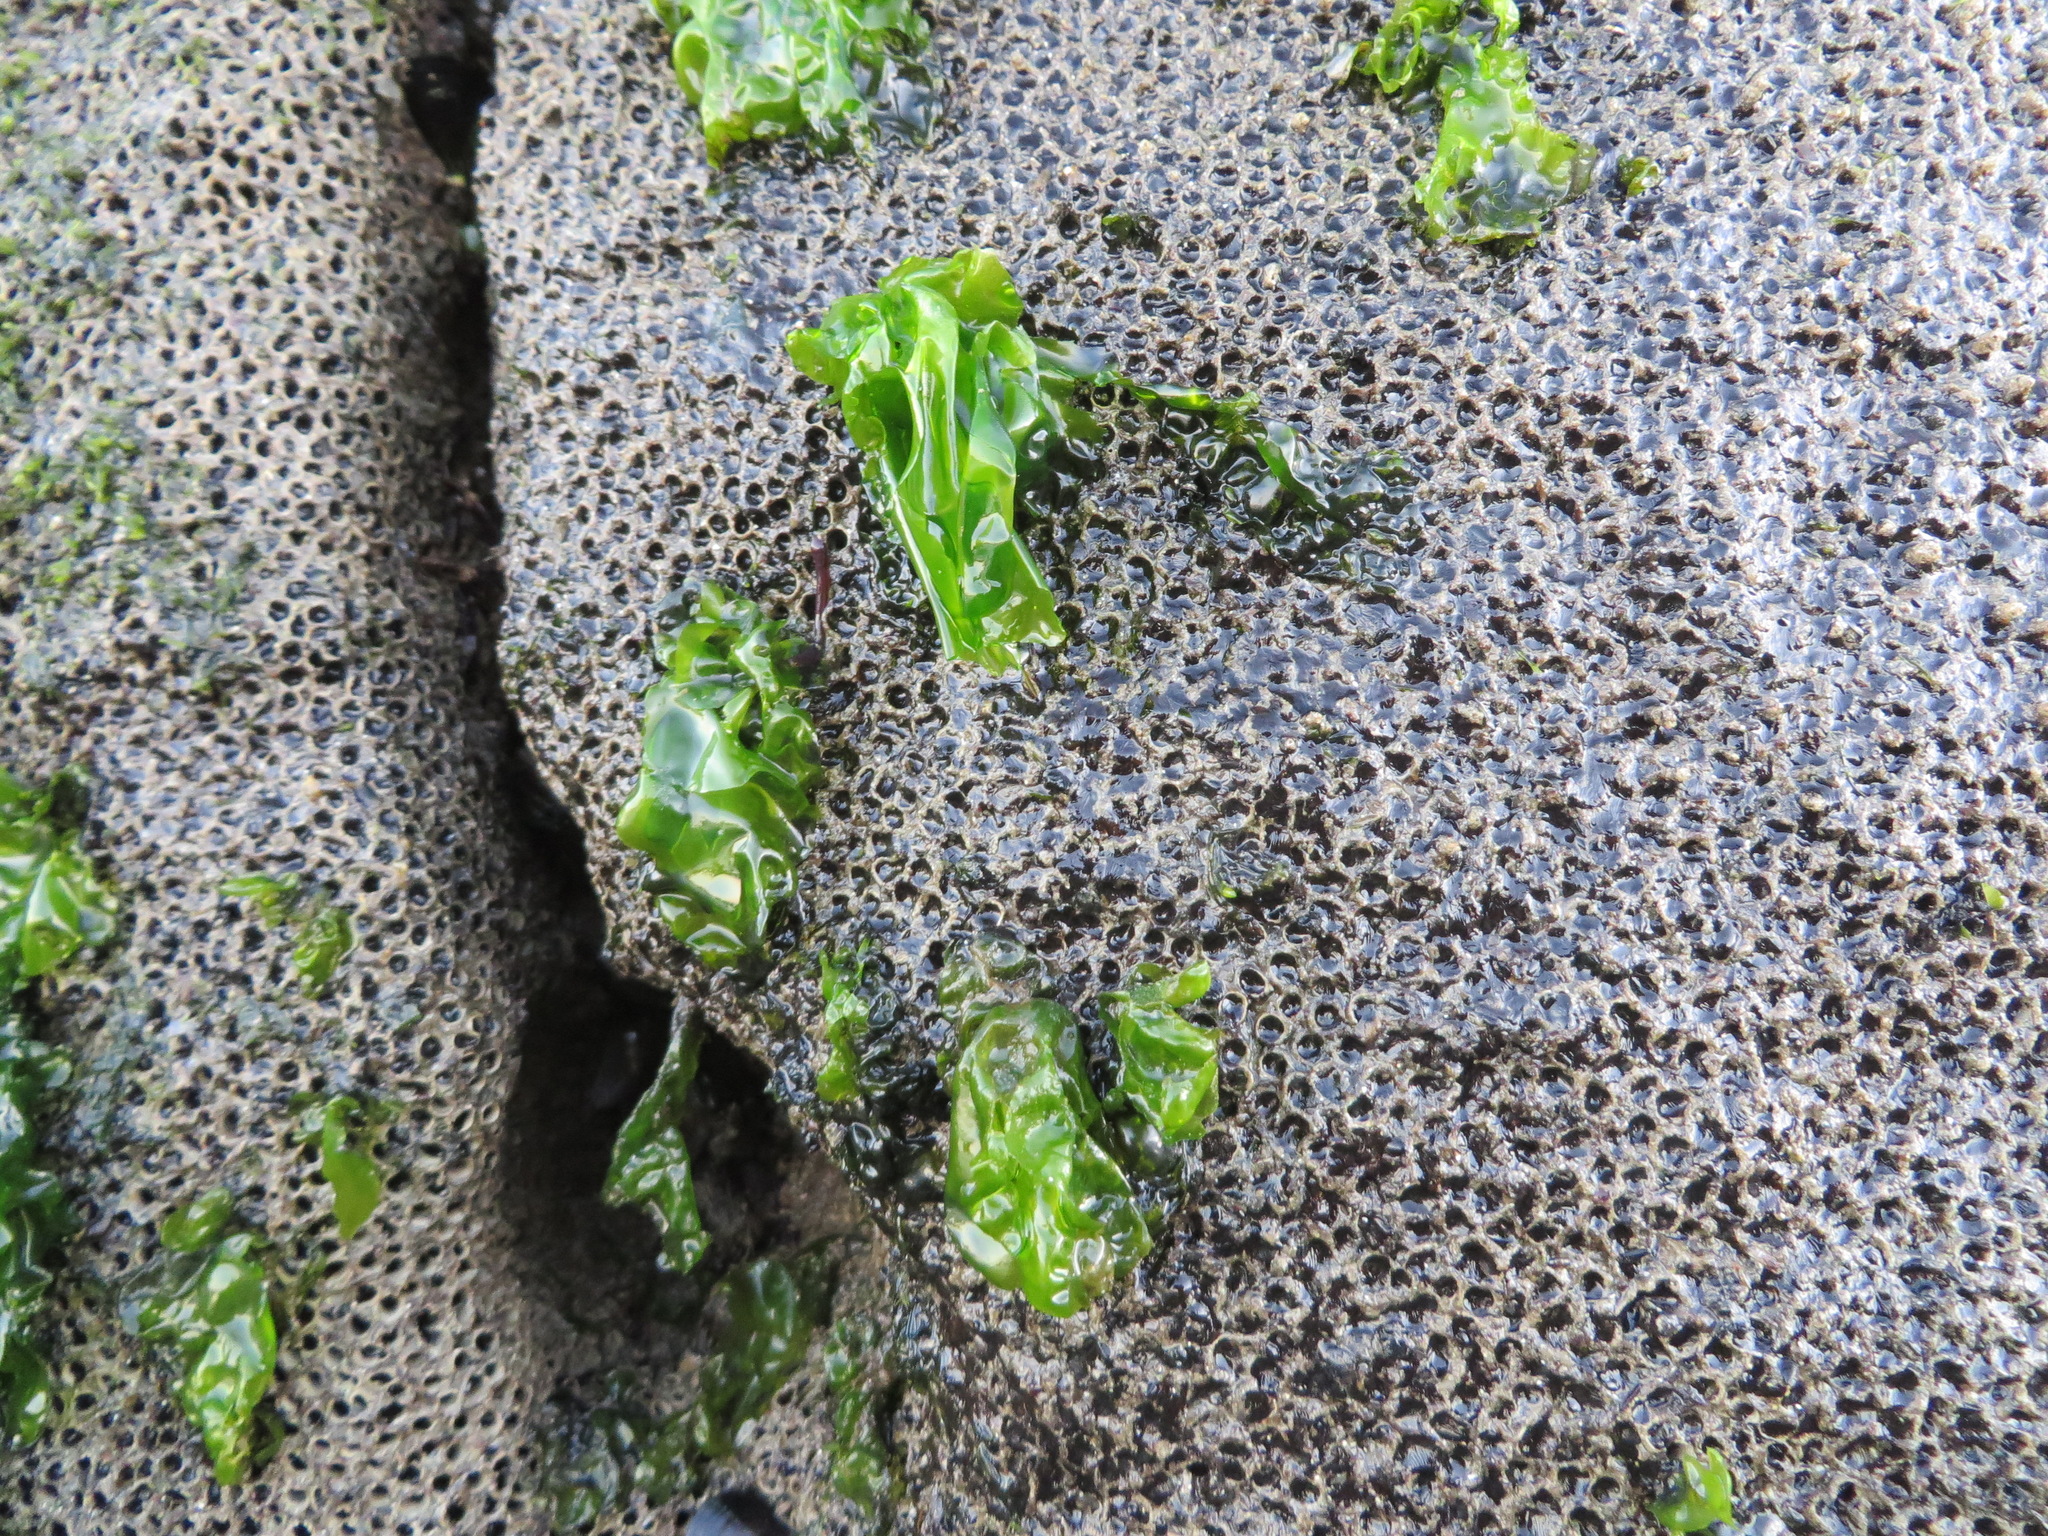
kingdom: Animalia
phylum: Annelida
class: Polychaeta
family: Cirratulidae
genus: Dodecaceria
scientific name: Dodecaceria pacifica
